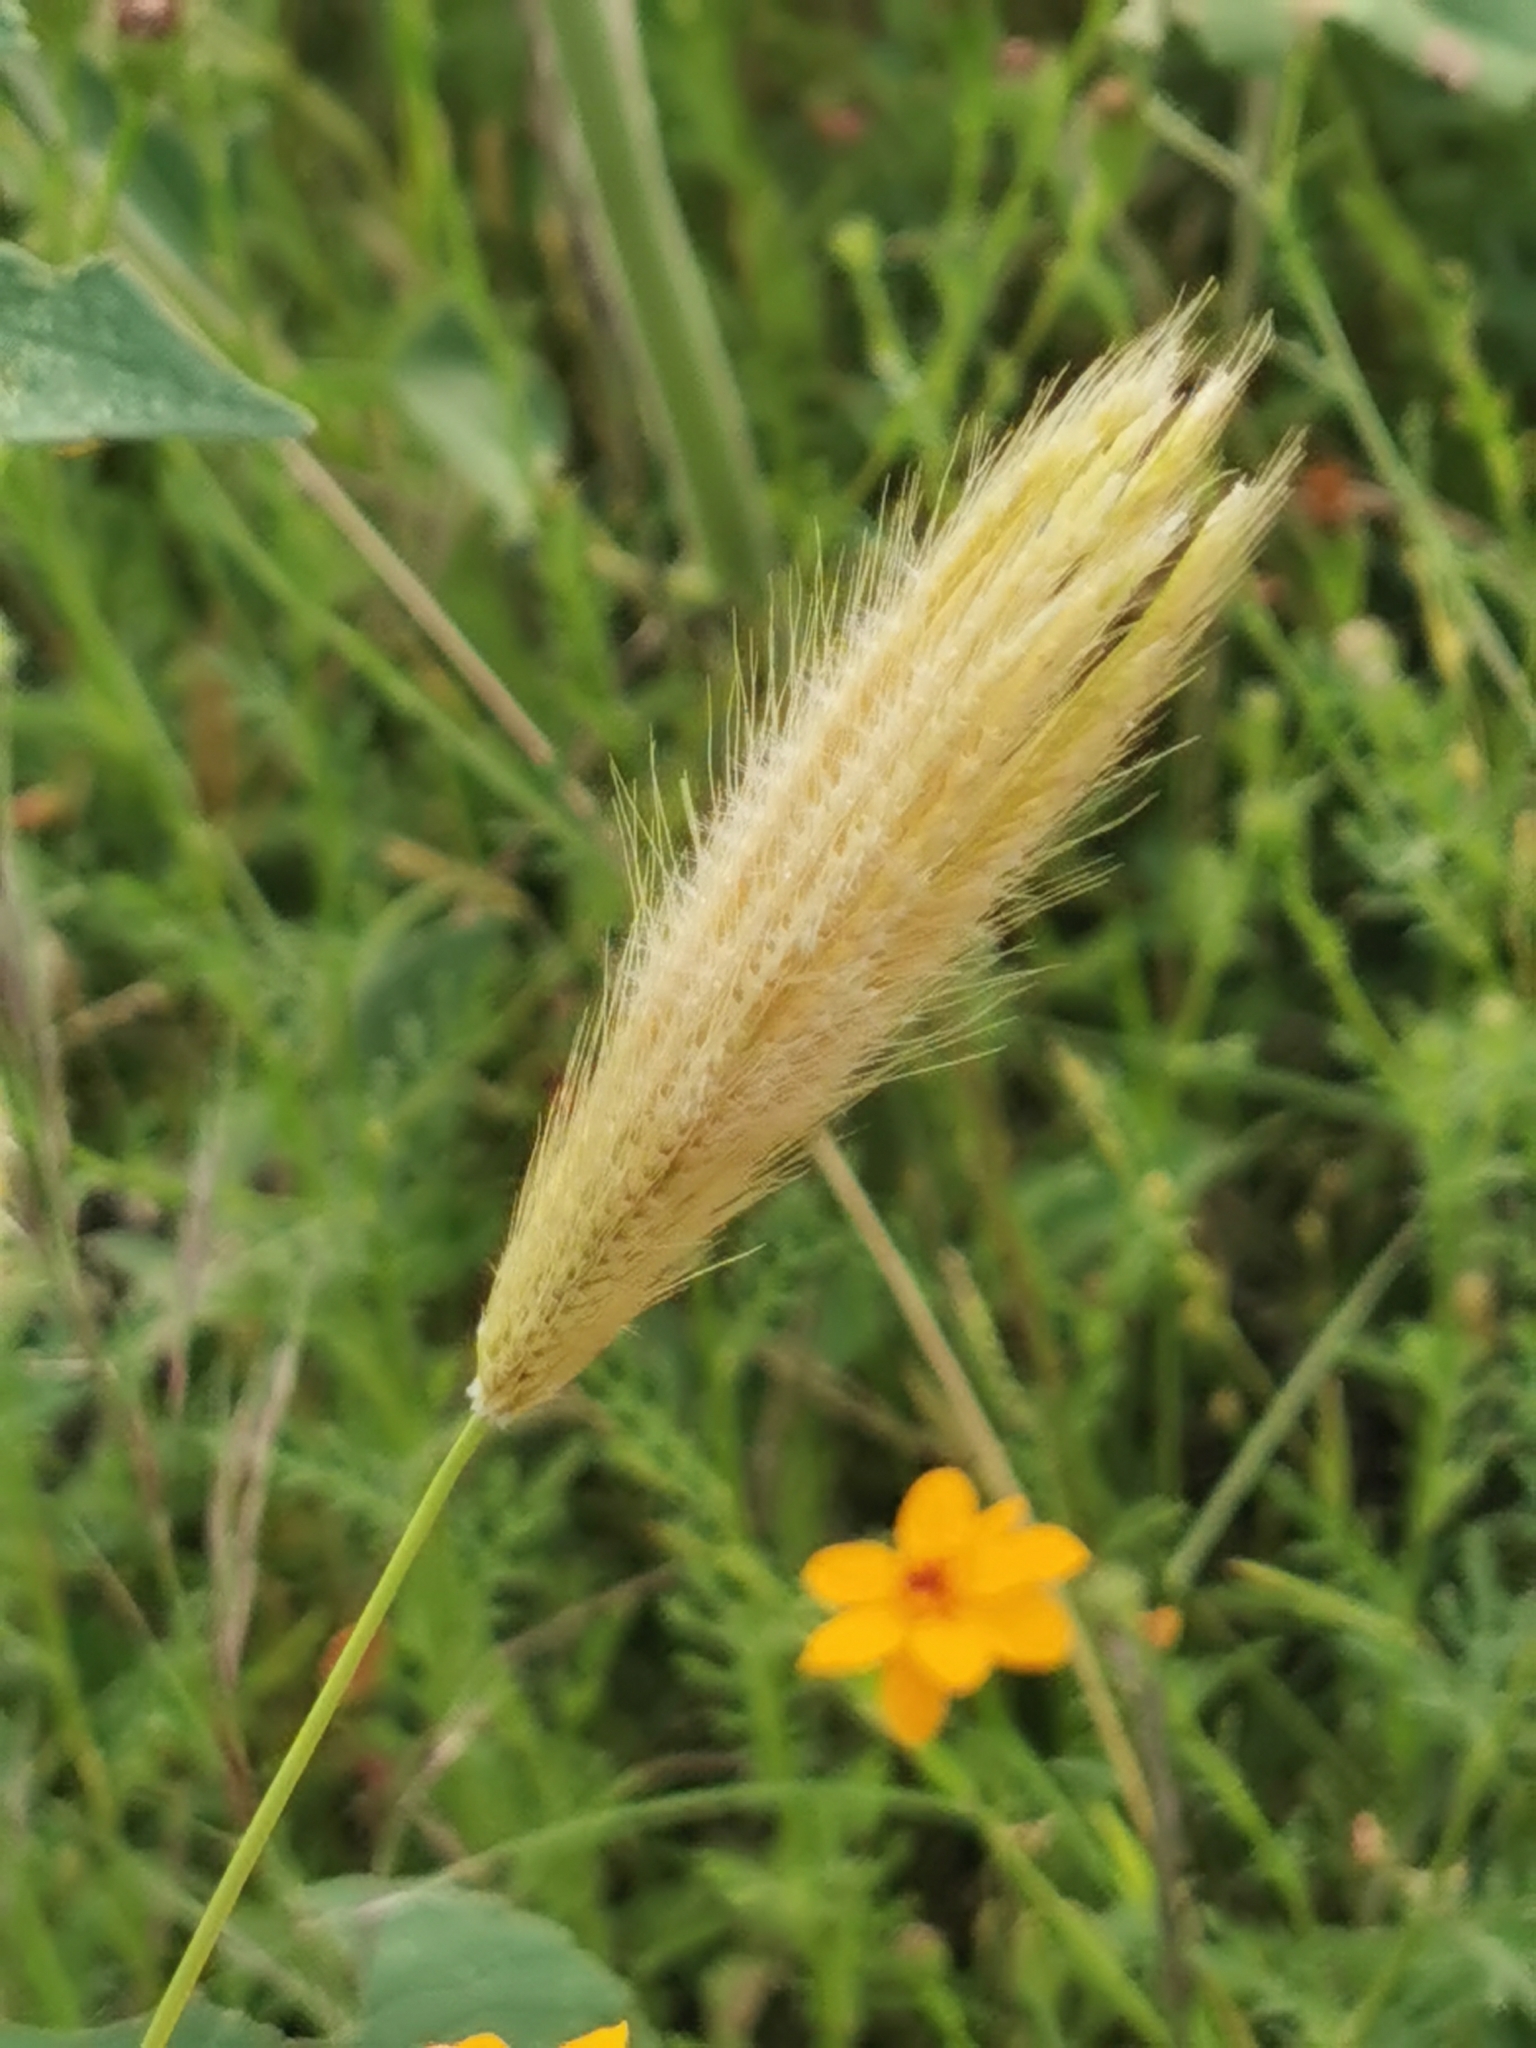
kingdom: Plantae
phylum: Tracheophyta
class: Liliopsida
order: Poales
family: Poaceae
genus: Chloris
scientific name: Chloris virgata
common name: Feathery rhodes-grass
